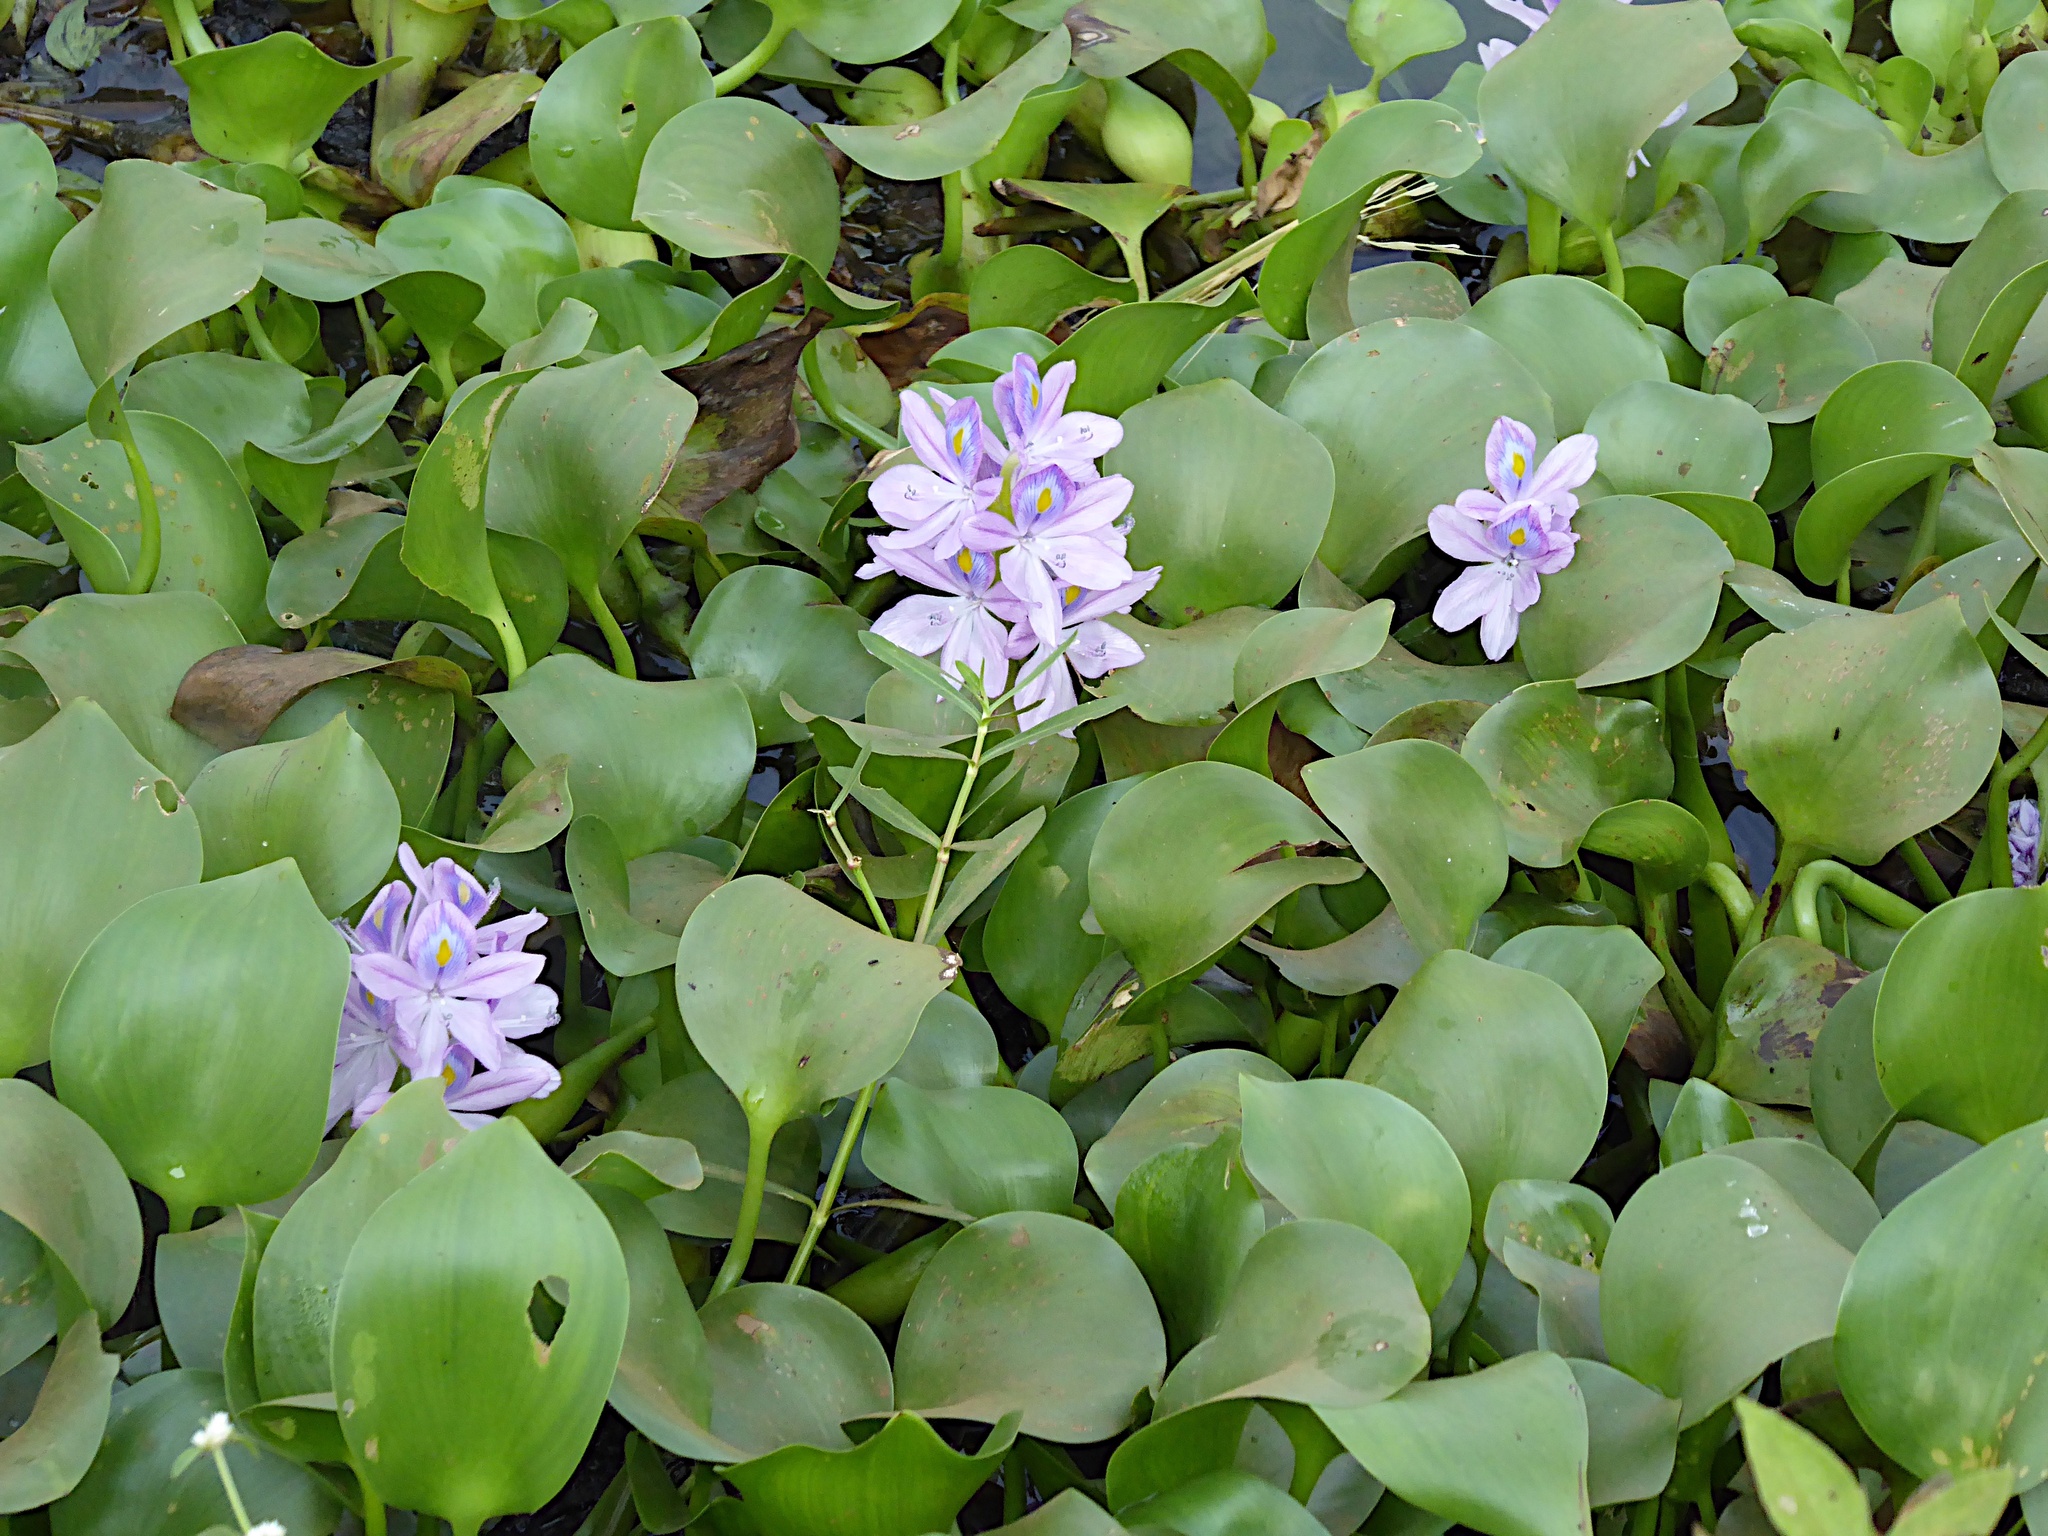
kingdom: Plantae
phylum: Tracheophyta
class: Liliopsida
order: Commelinales
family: Pontederiaceae
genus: Pontederia
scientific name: Pontederia crassipes
